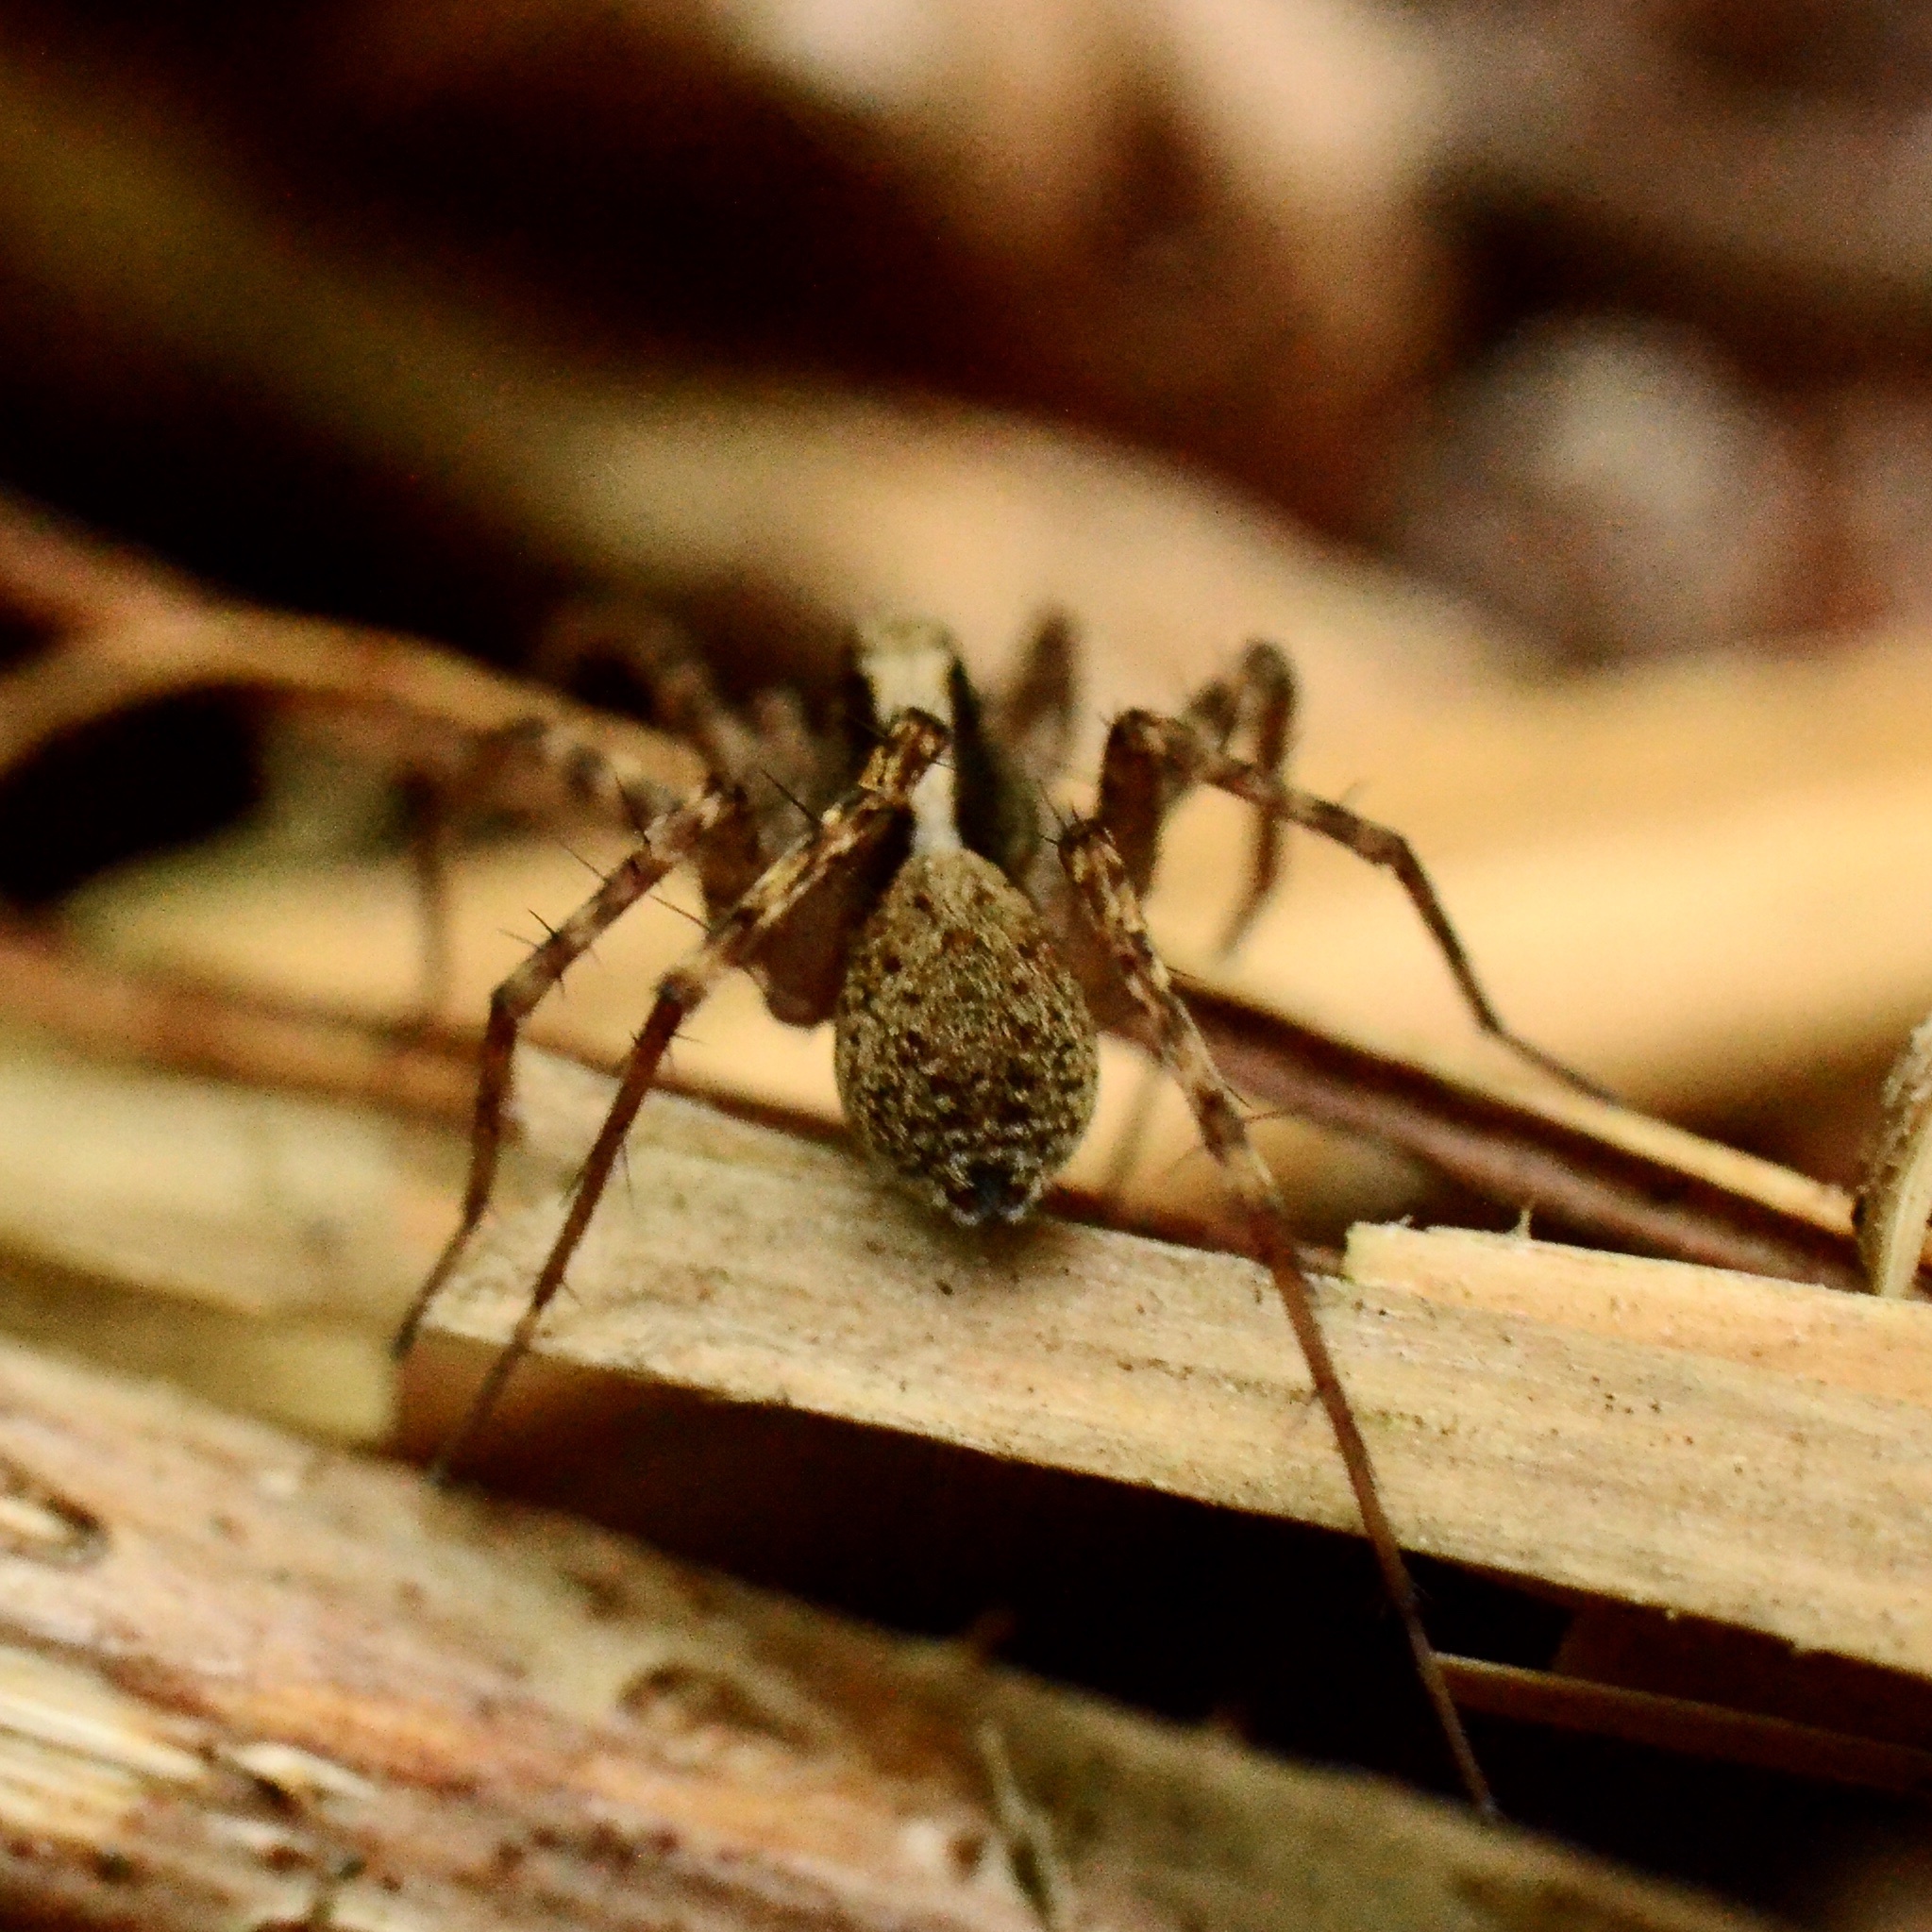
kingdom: Animalia
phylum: Arthropoda
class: Arachnida
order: Araneae
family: Lycosidae
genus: Pardosa
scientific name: Pardosa
